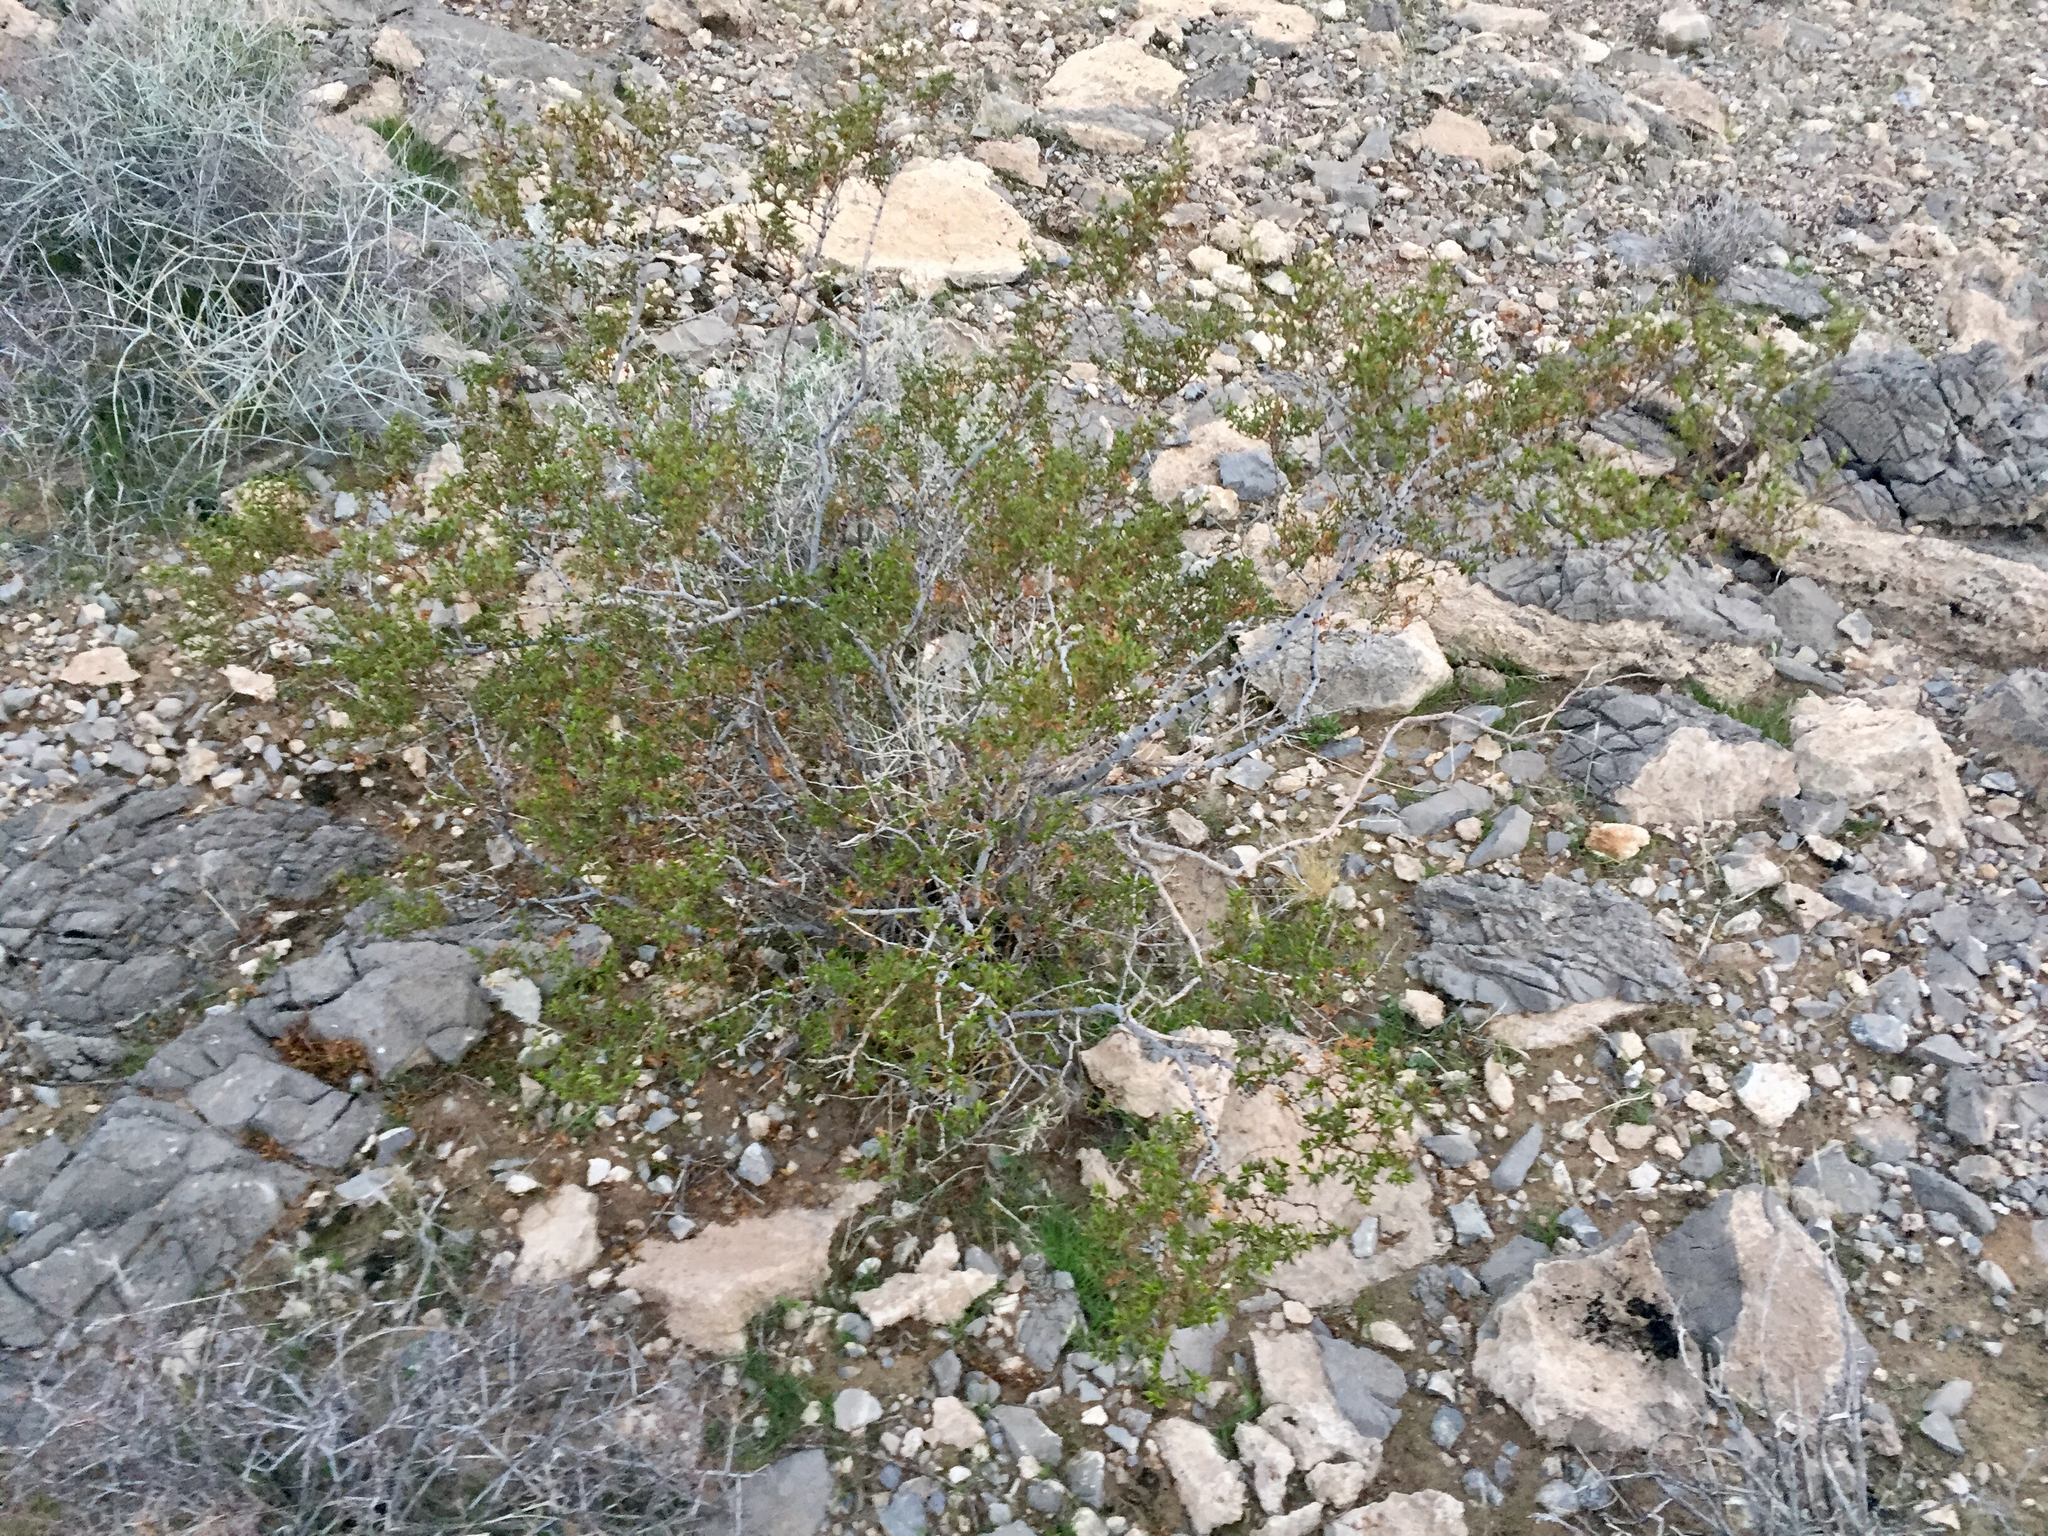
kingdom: Plantae
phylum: Tracheophyta
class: Magnoliopsida
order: Zygophyllales
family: Zygophyllaceae
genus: Larrea
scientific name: Larrea tridentata
